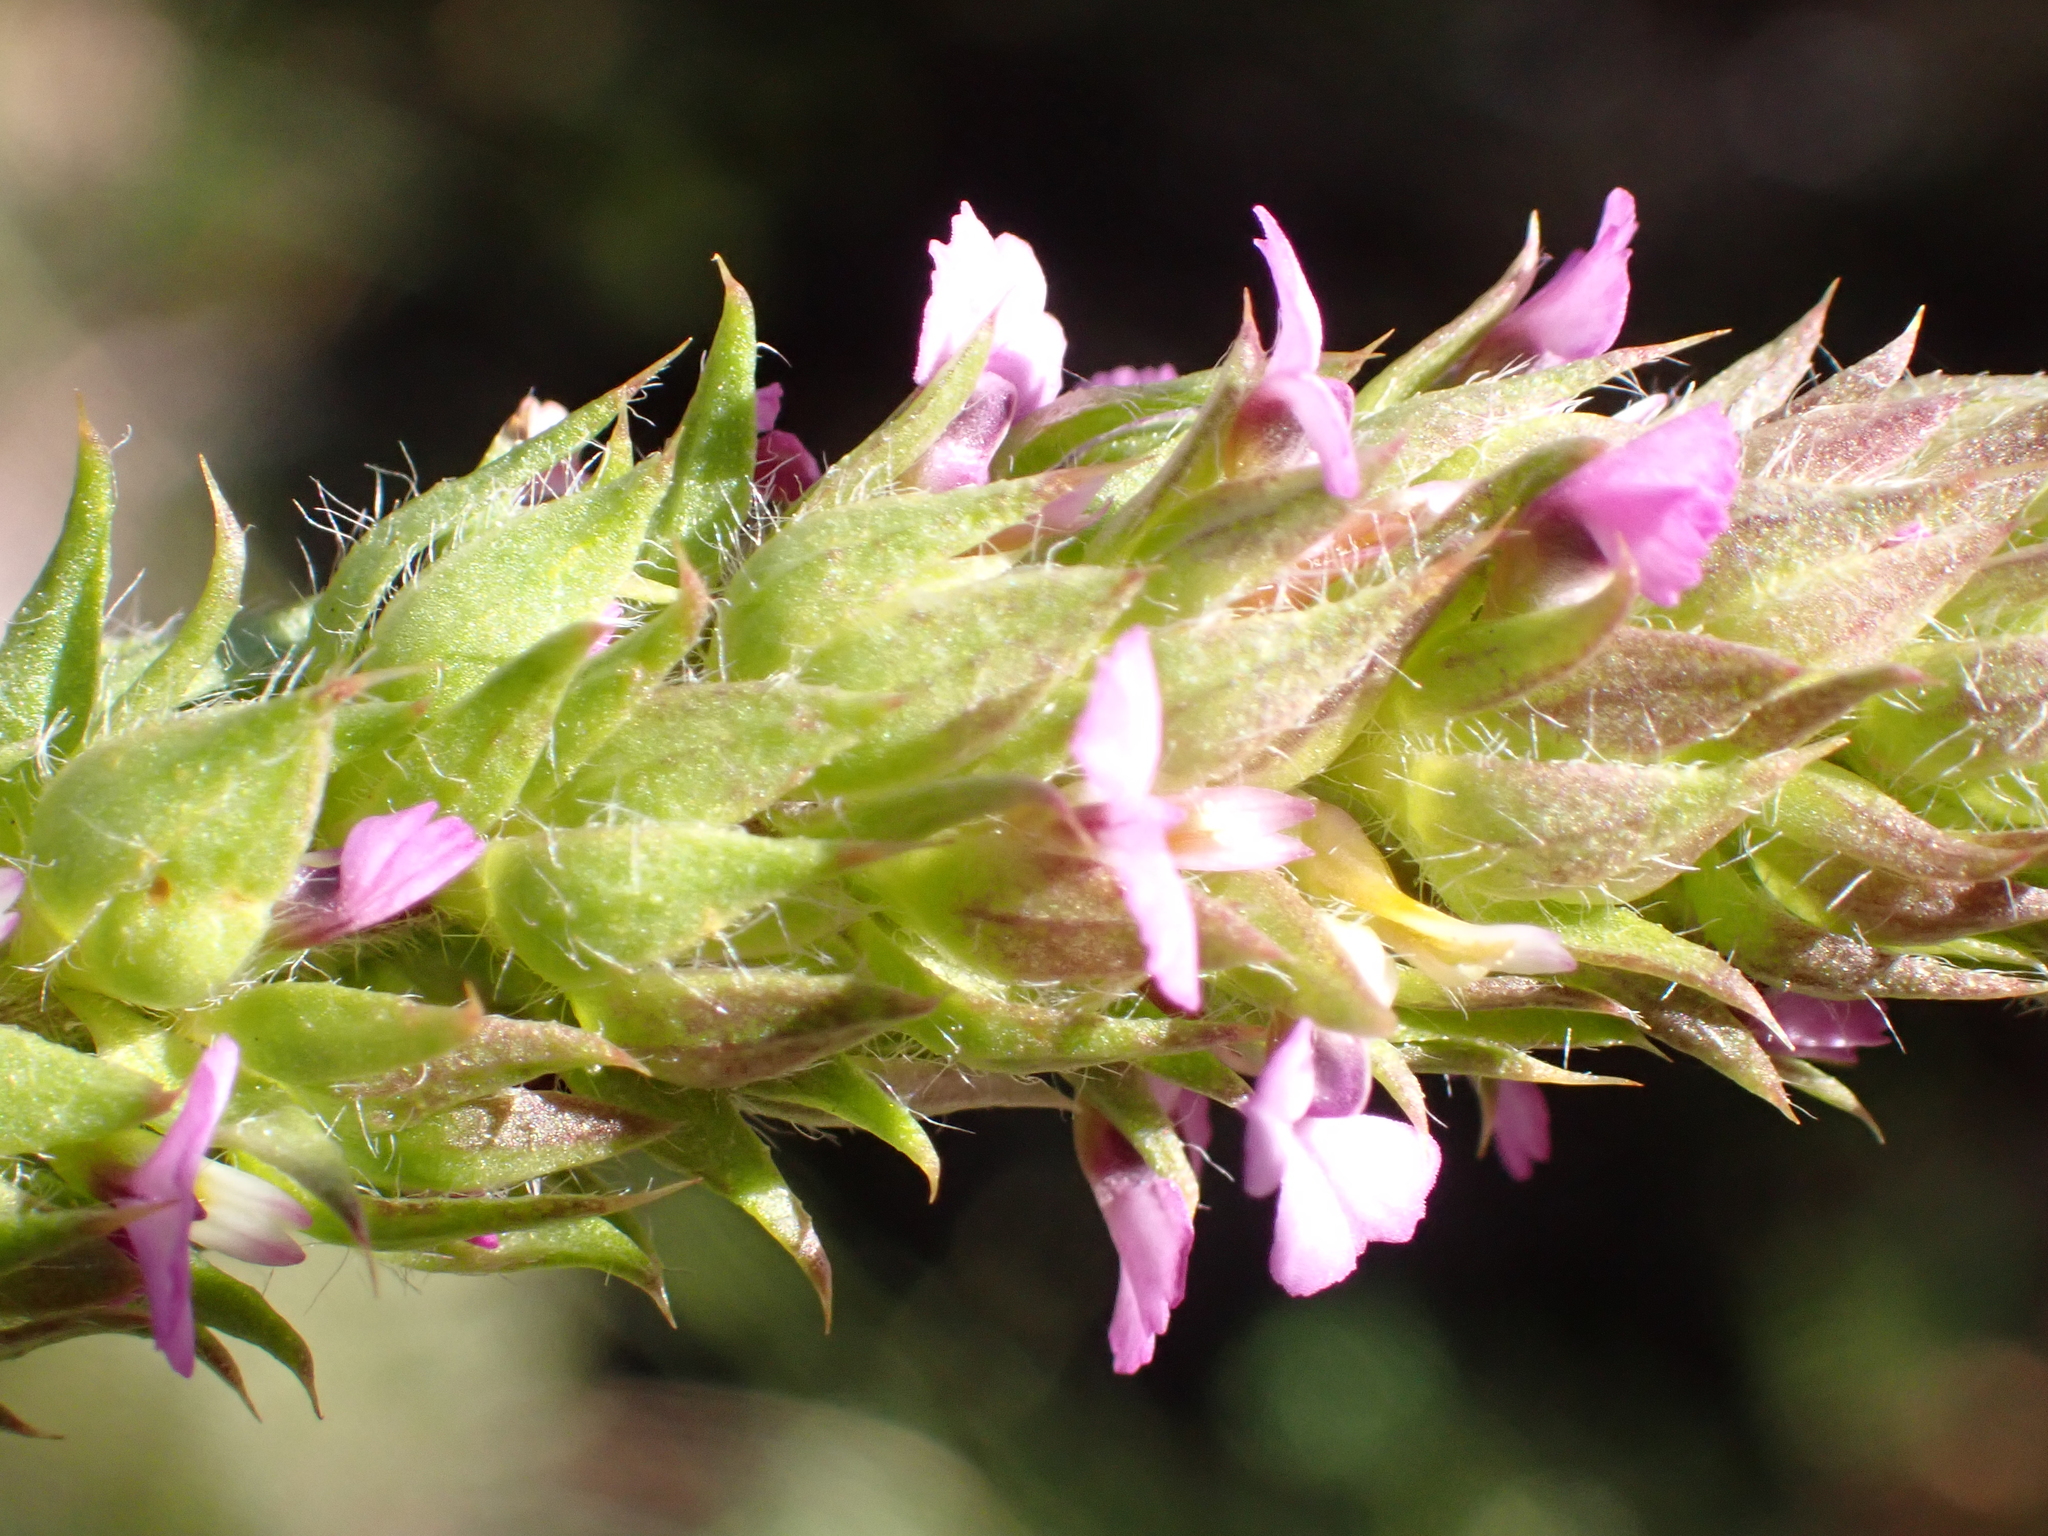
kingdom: Plantae
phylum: Tracheophyta
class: Magnoliopsida
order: Fabales
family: Polygalaceae
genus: Muraltia
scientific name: Muraltia alopecuroides
